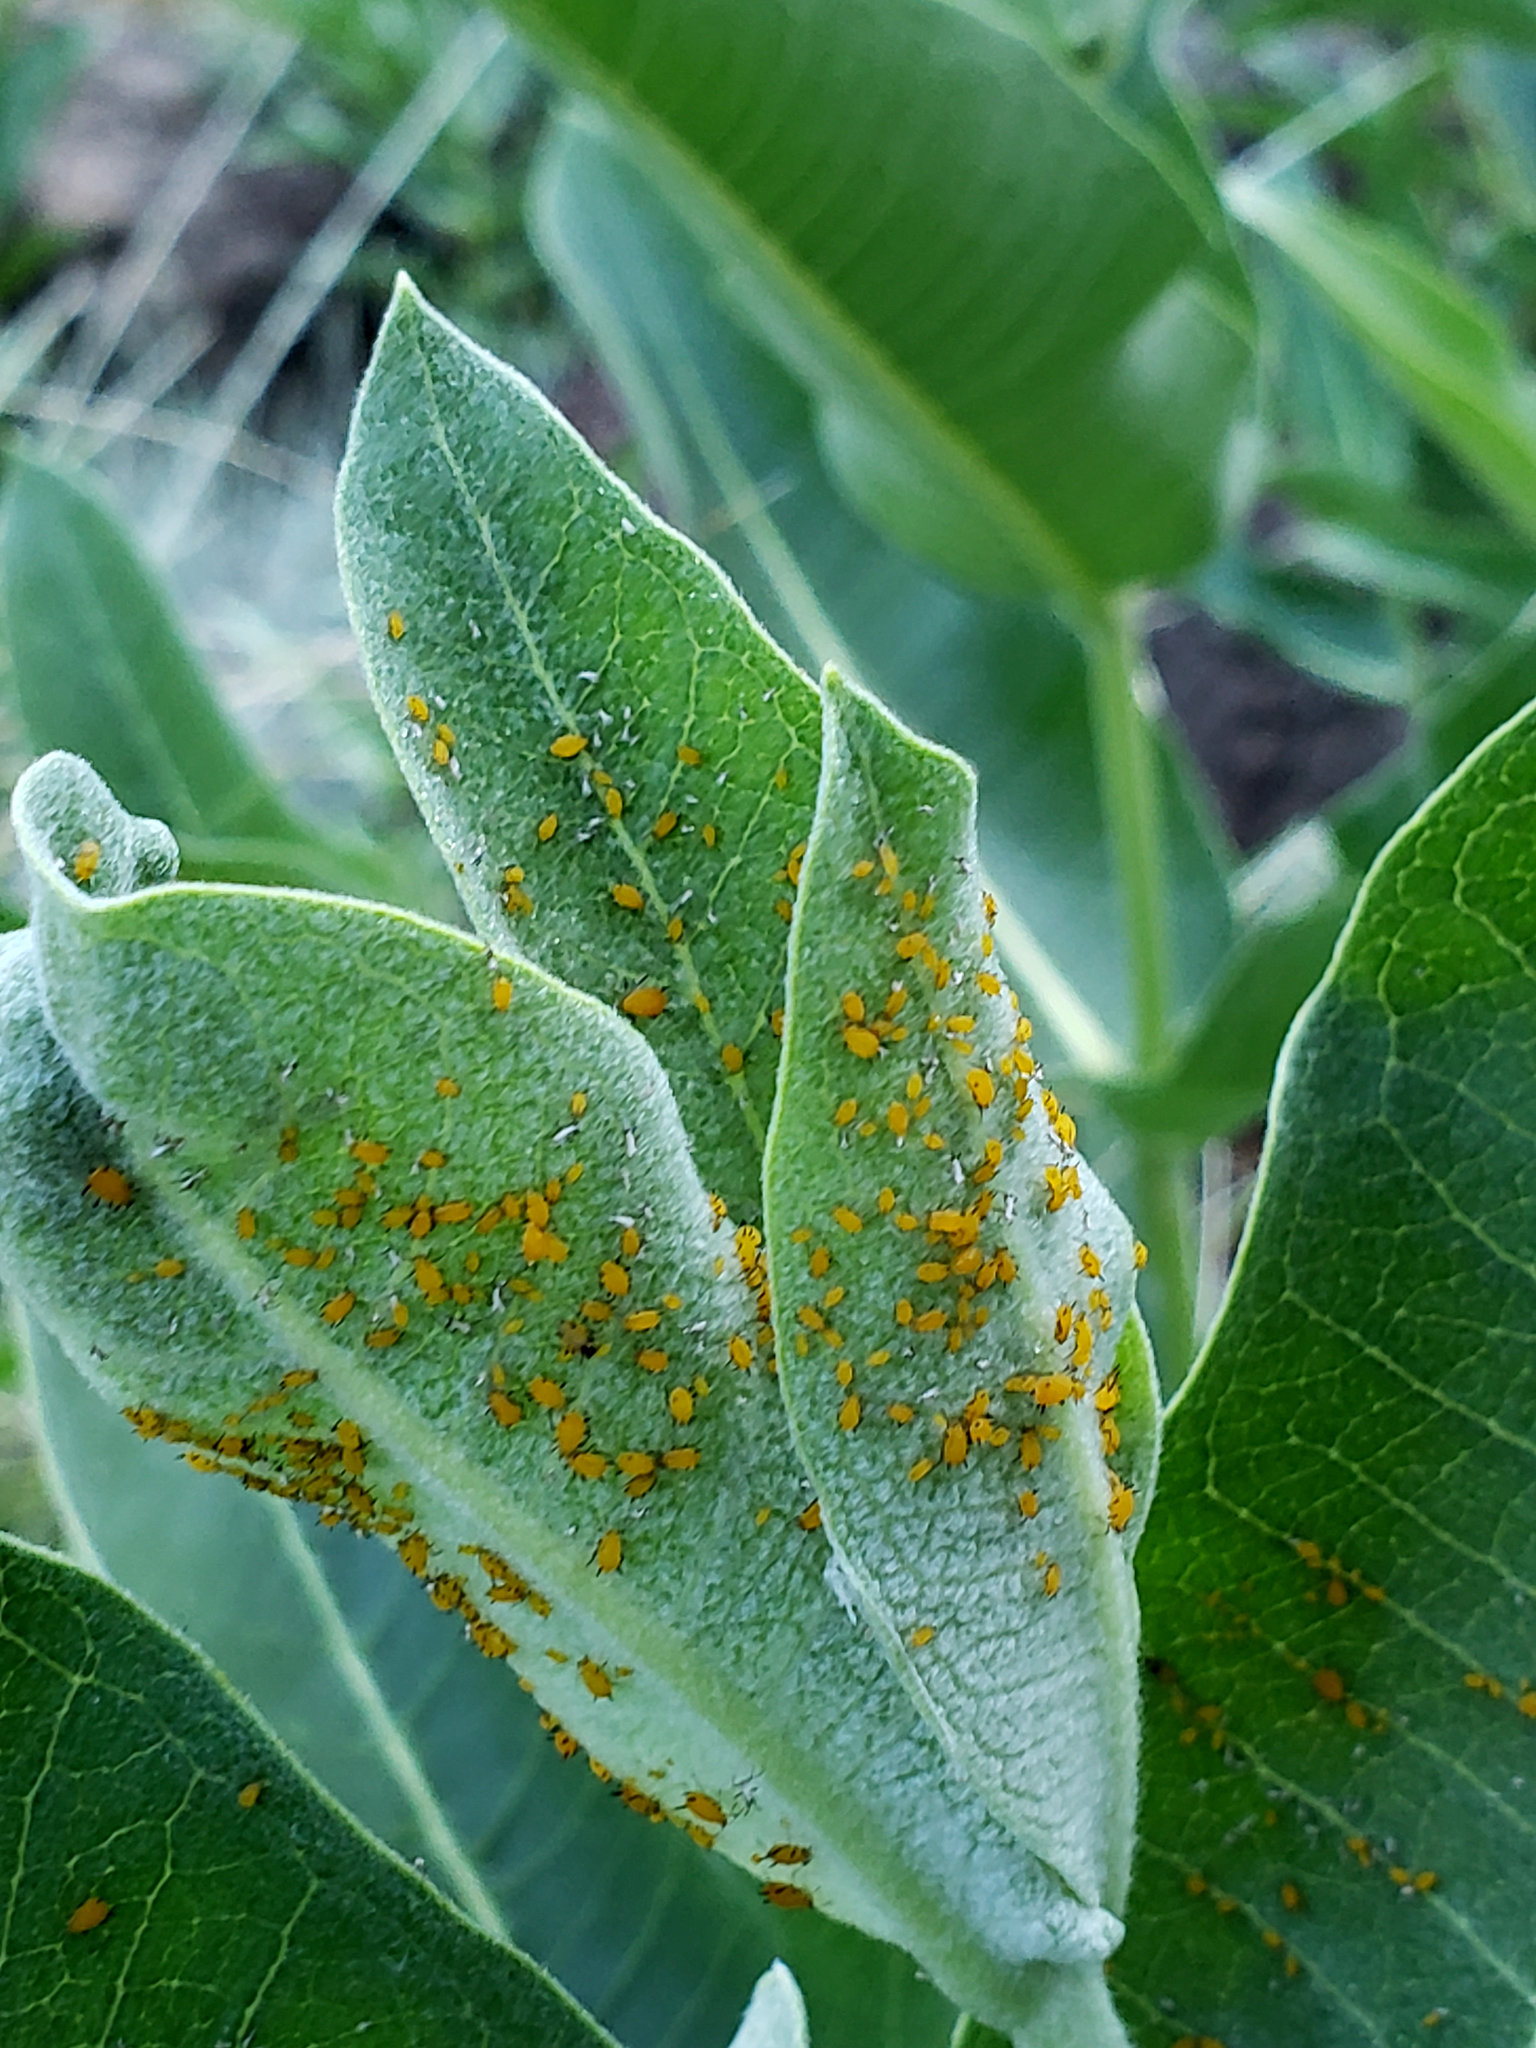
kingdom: Animalia
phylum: Arthropoda
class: Insecta
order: Hemiptera
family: Aphididae
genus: Aphis
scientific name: Aphis nerii
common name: Oleander aphid
